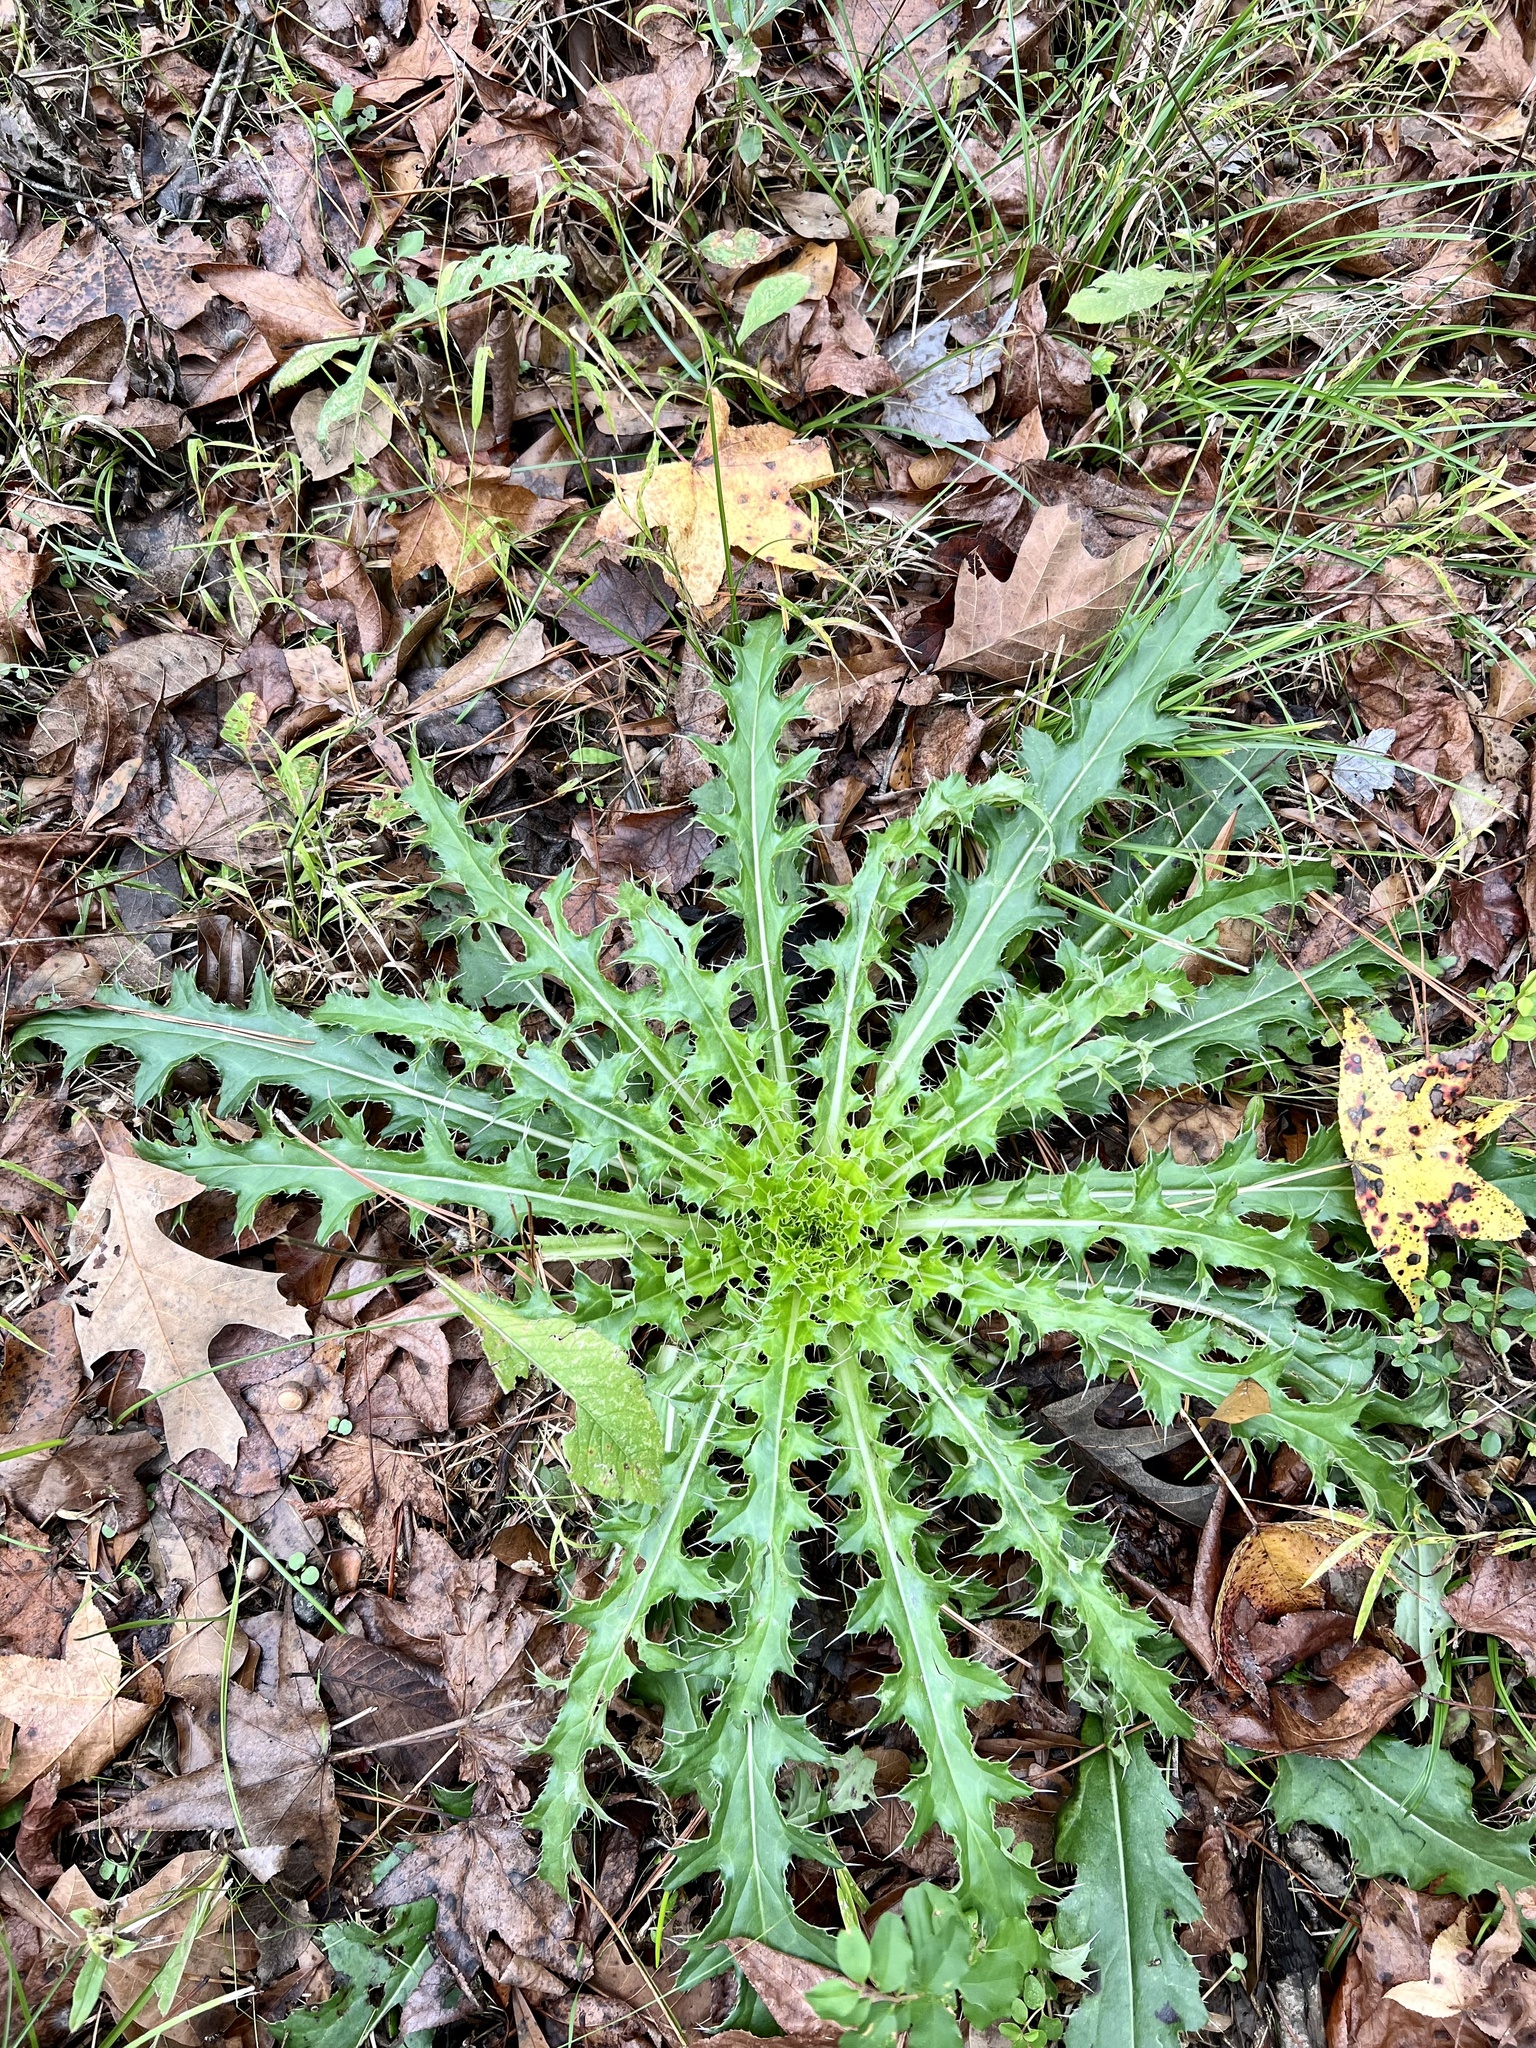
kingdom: Plantae
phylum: Tracheophyta
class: Magnoliopsida
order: Asterales
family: Asteraceae
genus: Cirsium
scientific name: Cirsium horridulum
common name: Bristly thistle
